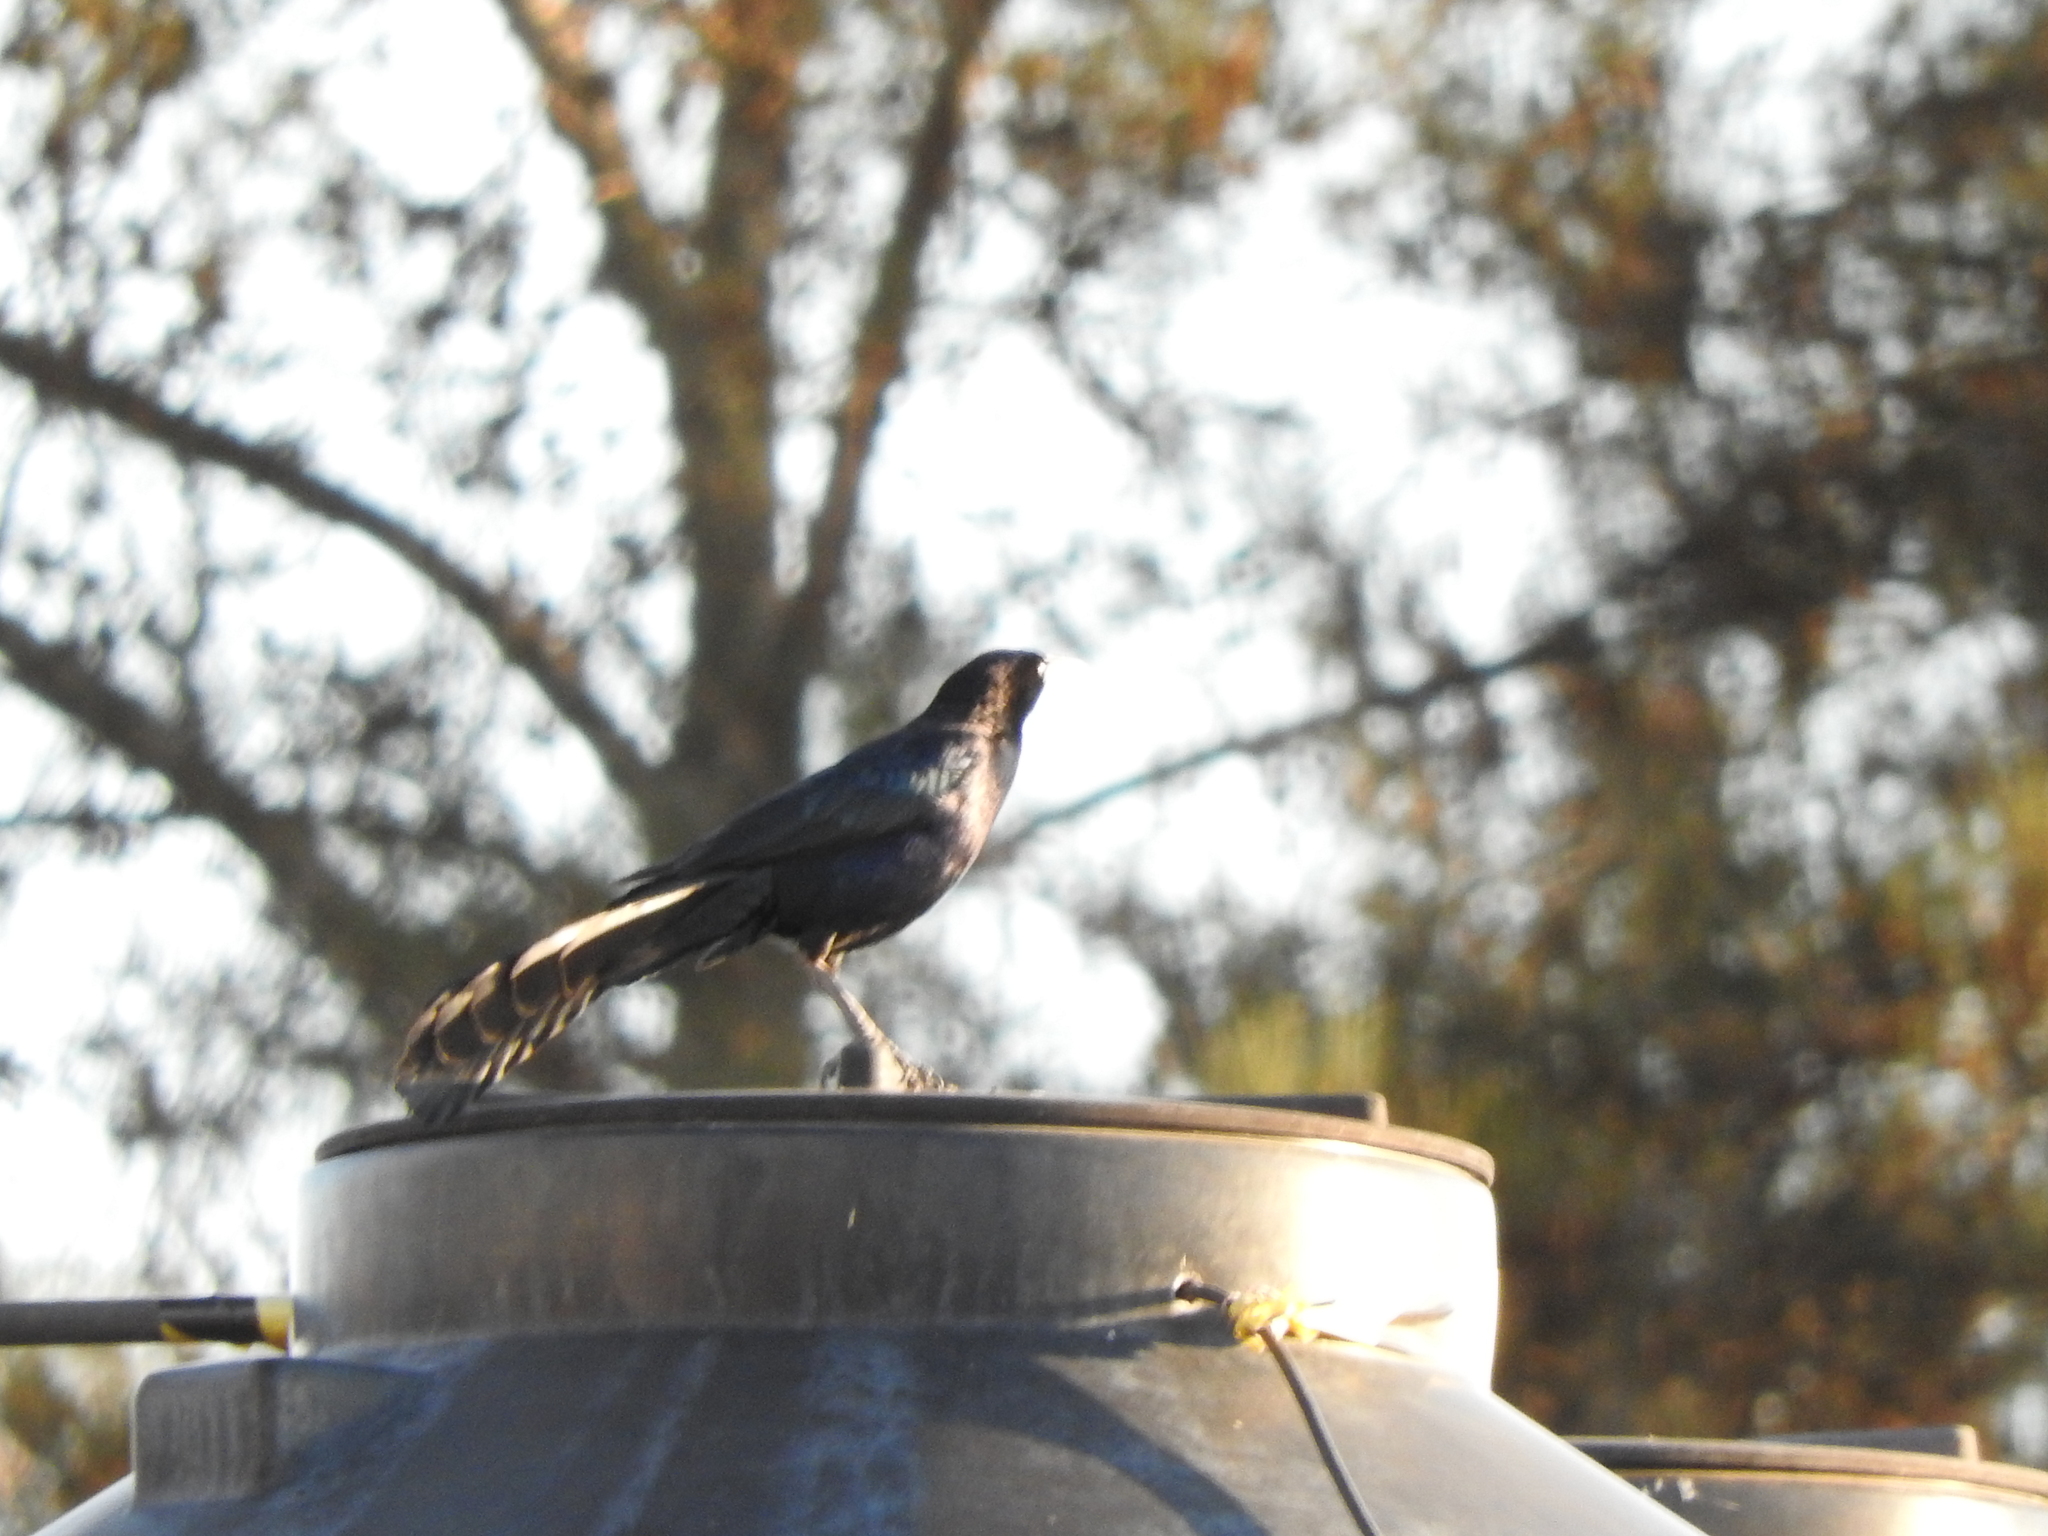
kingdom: Animalia
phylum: Chordata
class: Aves
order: Passeriformes
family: Icteridae
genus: Quiscalus
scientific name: Quiscalus mexicanus
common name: Great-tailed grackle
